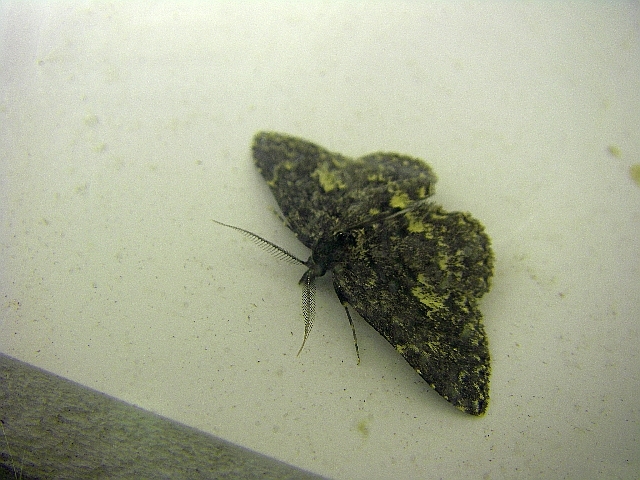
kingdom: Animalia
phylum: Arthropoda
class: Insecta
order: Lepidoptera
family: Erebidae
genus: Parascotia
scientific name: Parascotia fuliginaria
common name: Waved black
